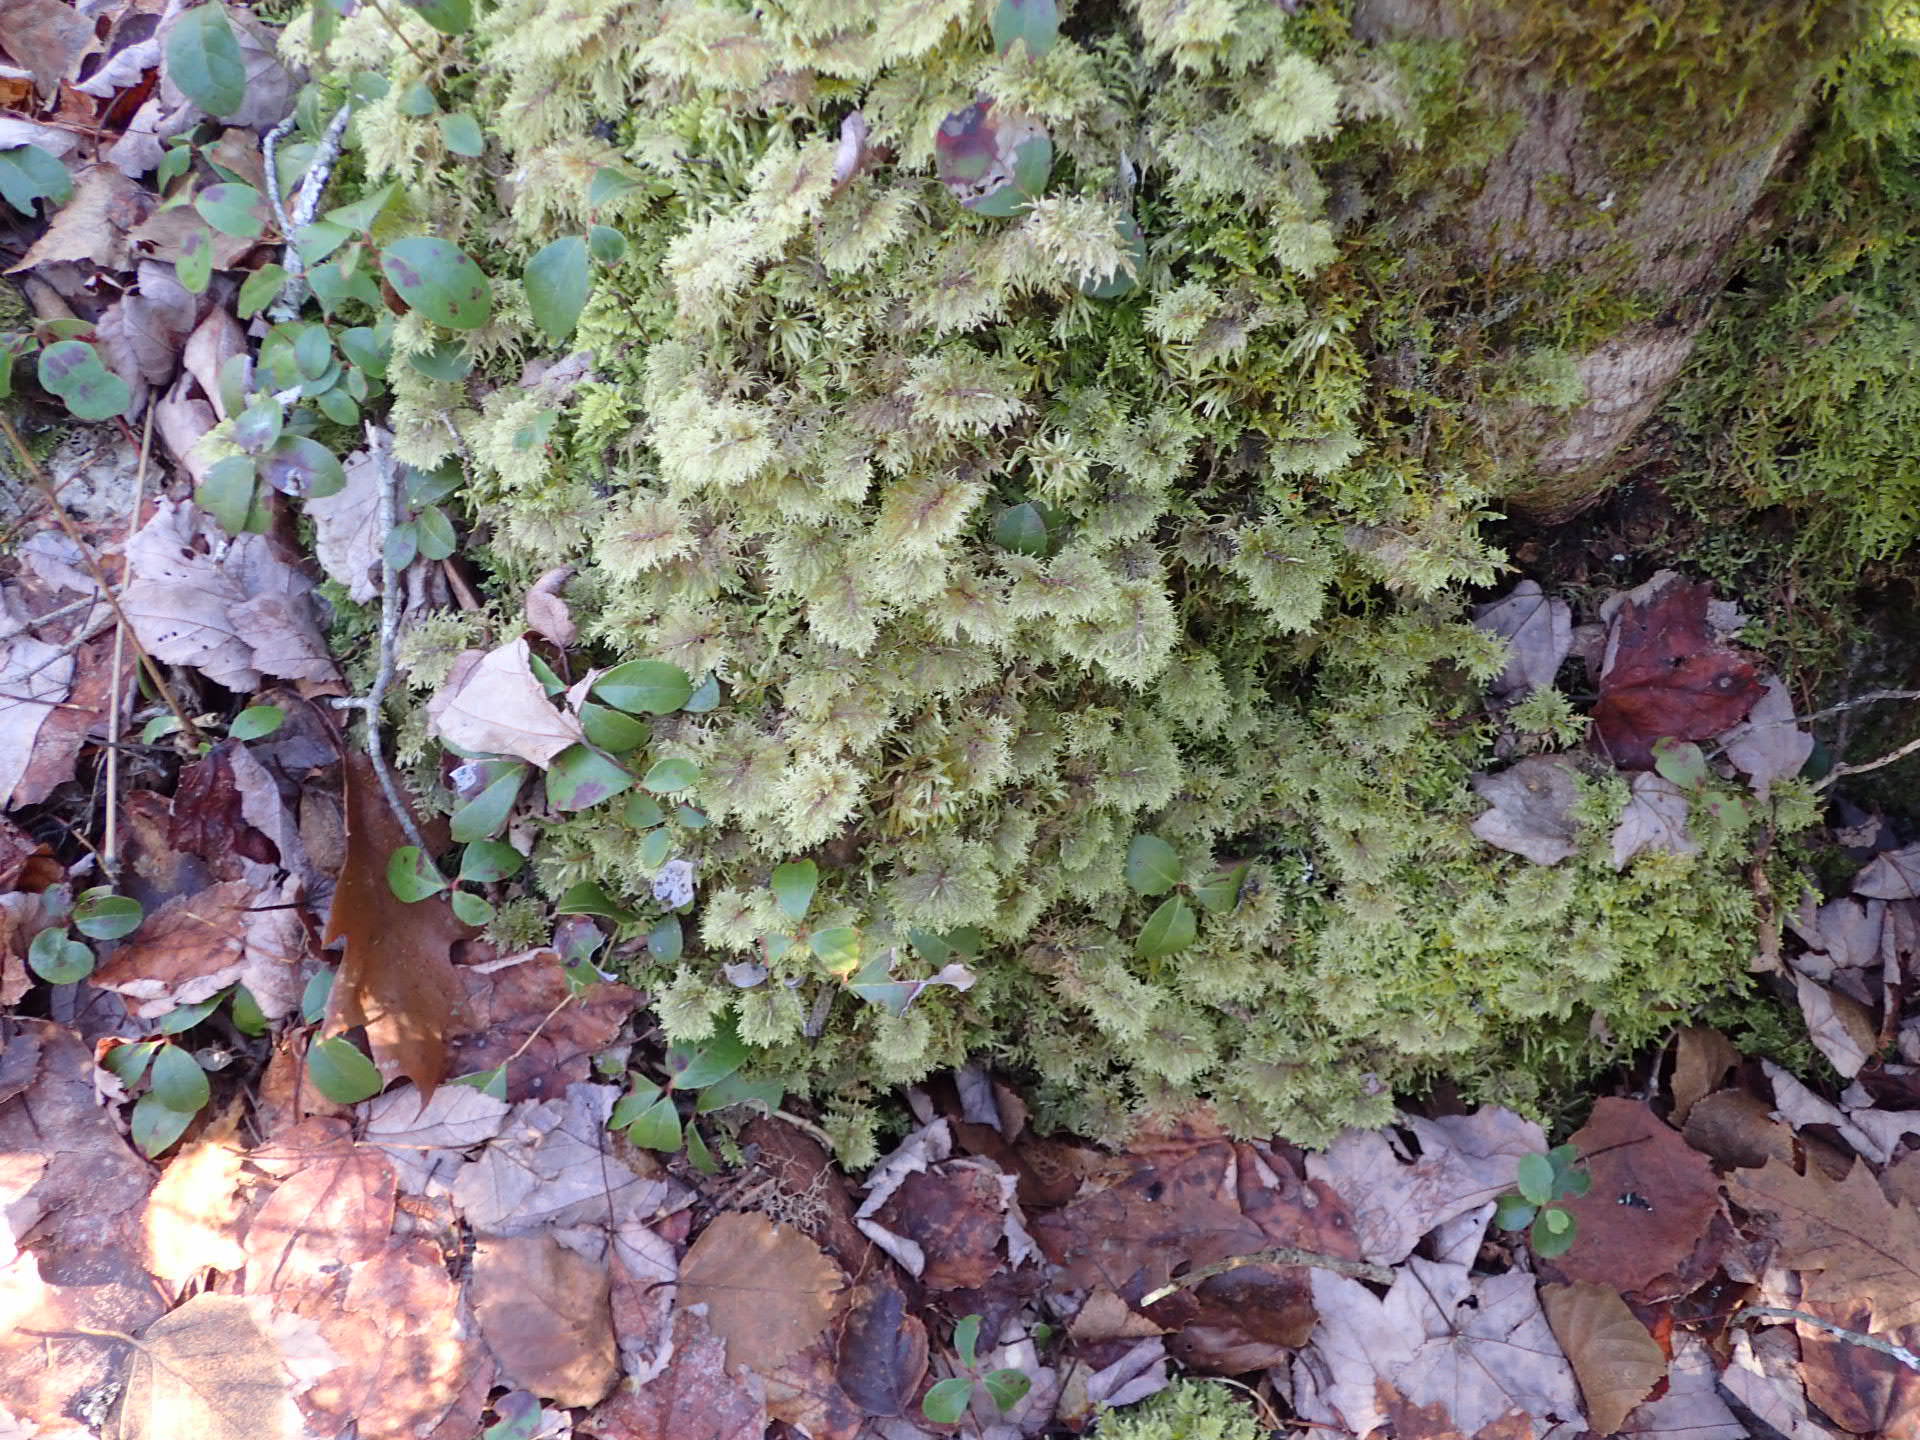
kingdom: Plantae
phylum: Bryophyta
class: Bryopsida
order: Hypnales
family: Hylocomiaceae
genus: Hylocomium
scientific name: Hylocomium splendens
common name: Stairstep moss
